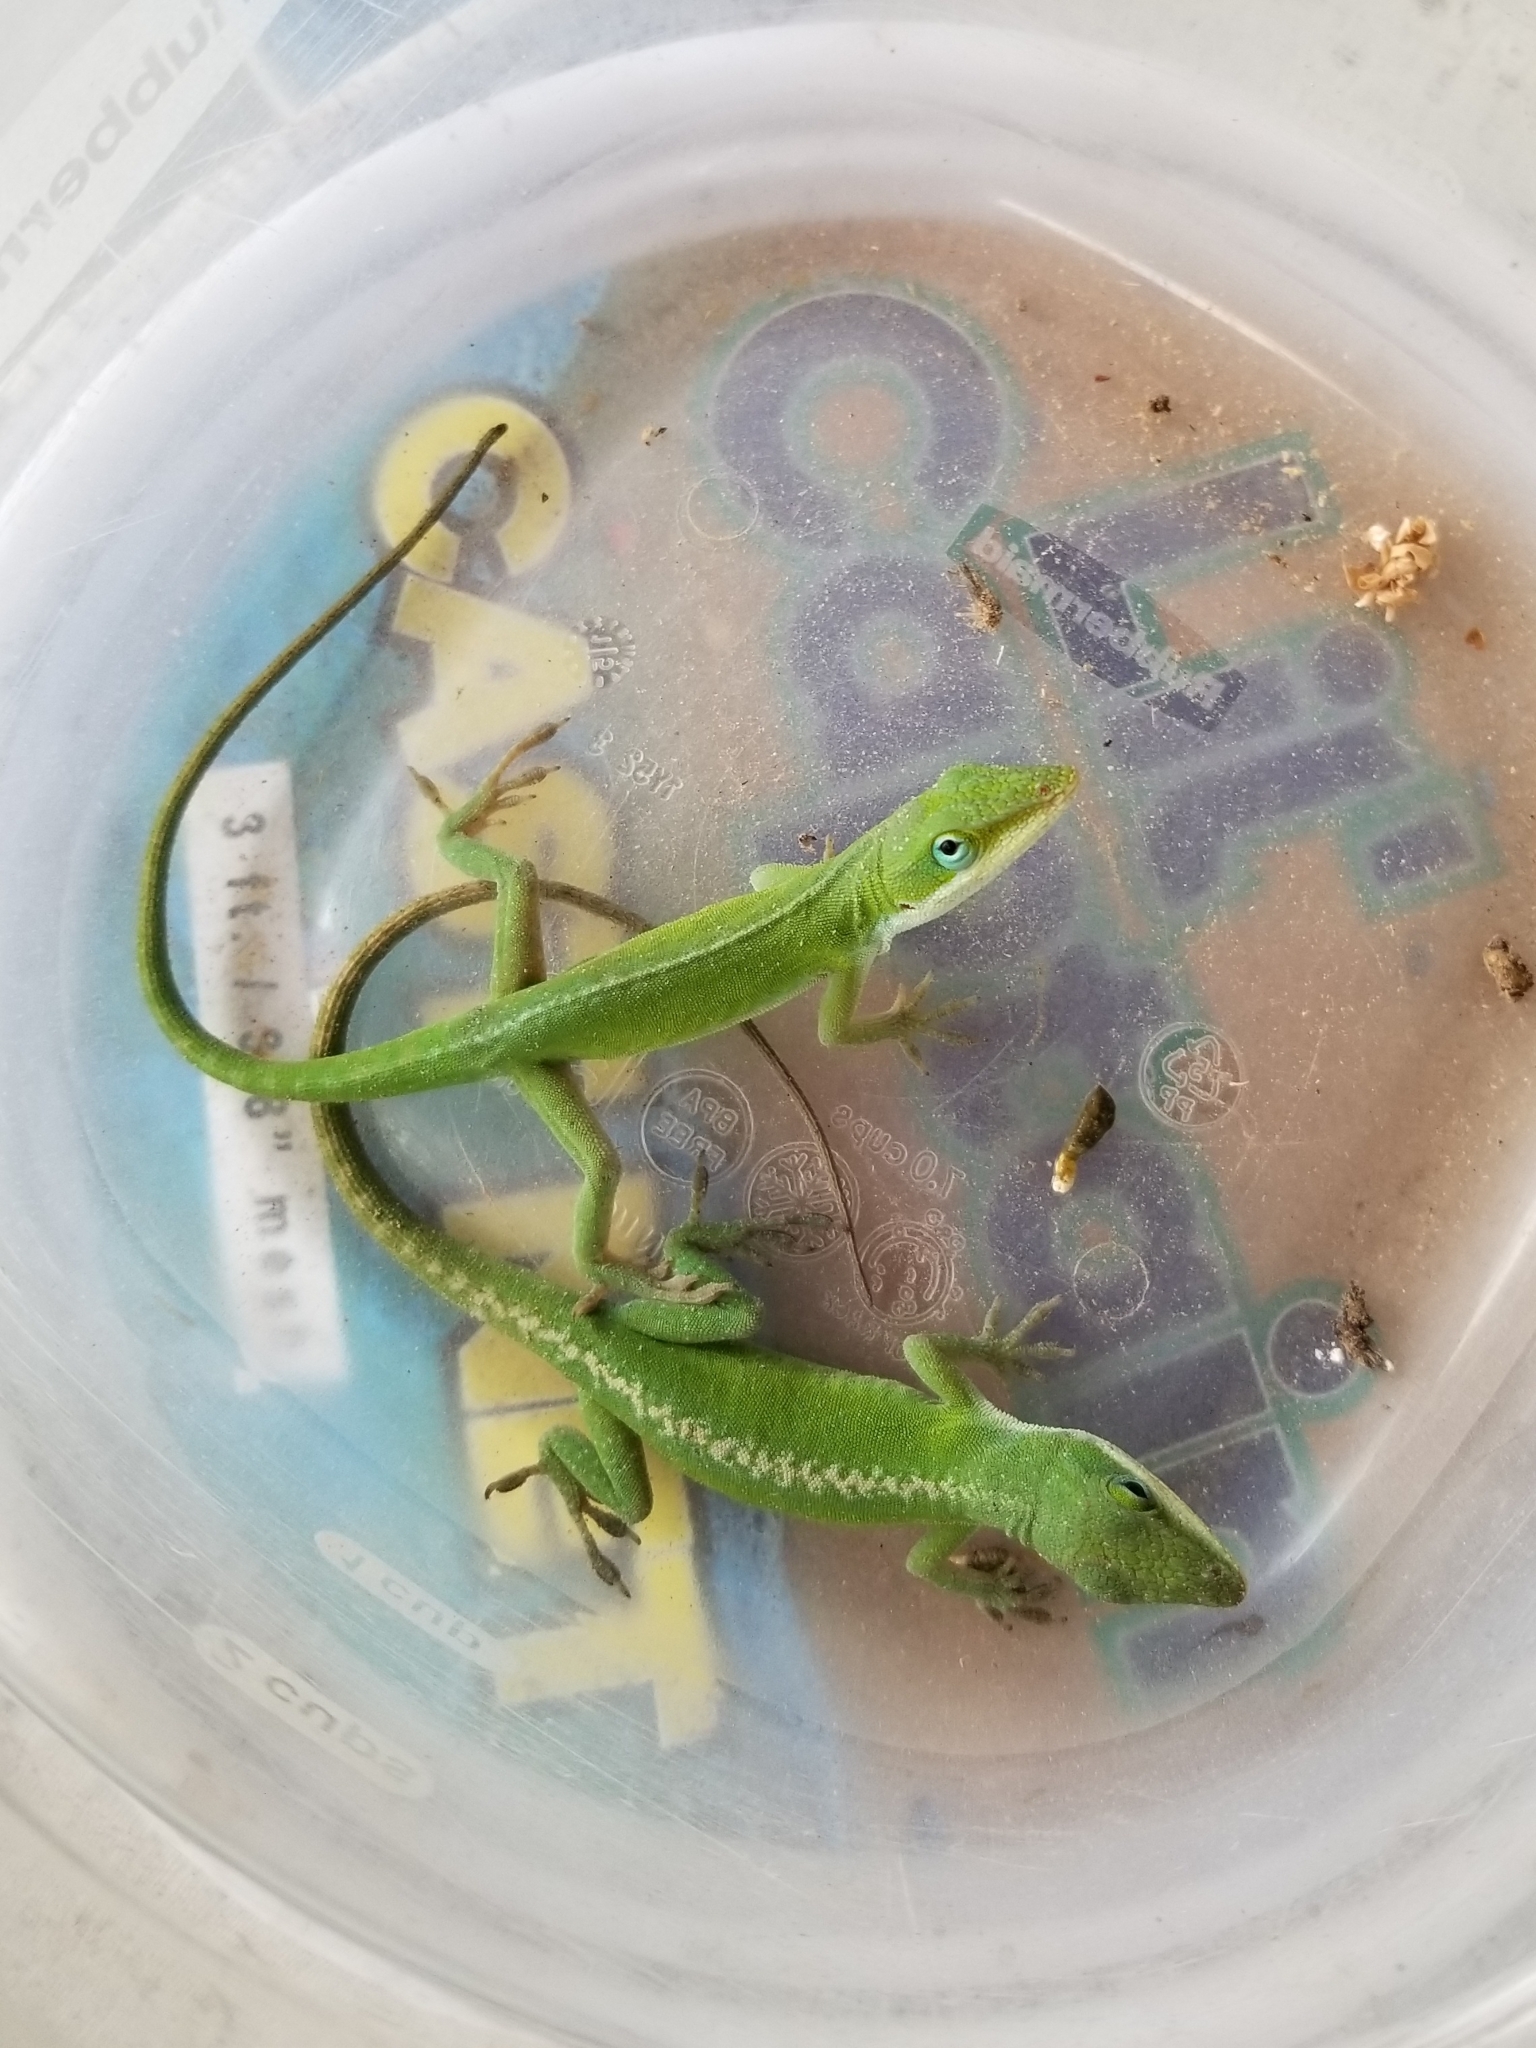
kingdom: Animalia
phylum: Chordata
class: Squamata
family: Dactyloidae
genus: Anolis
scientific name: Anolis carolinensis
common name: Green anole
